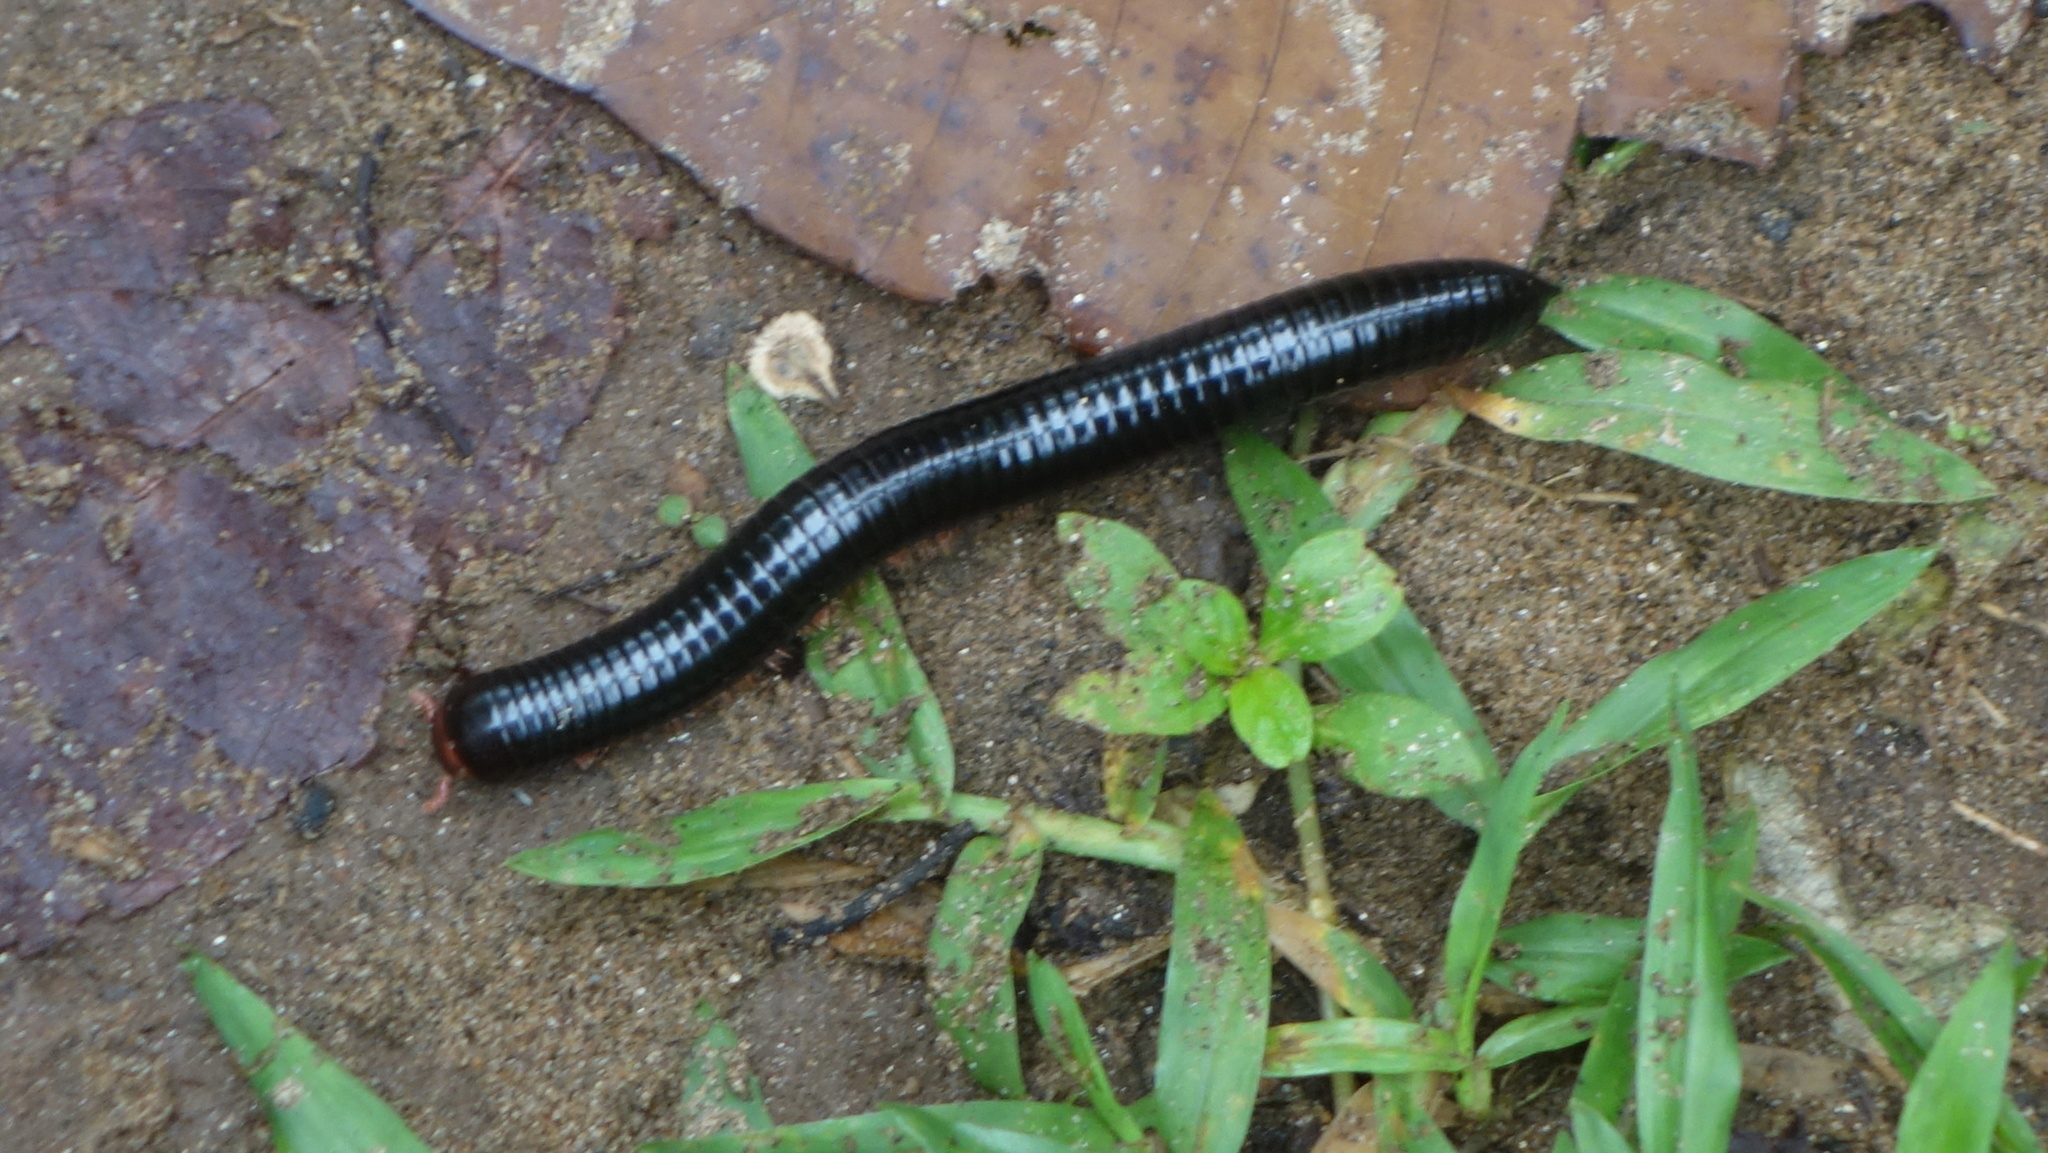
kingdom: Animalia
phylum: Arthropoda
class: Diplopoda
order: Spirostreptida
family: Harpagophoridae
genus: Phyllogonostreptus
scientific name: Phyllogonostreptus nigrolabiatus
